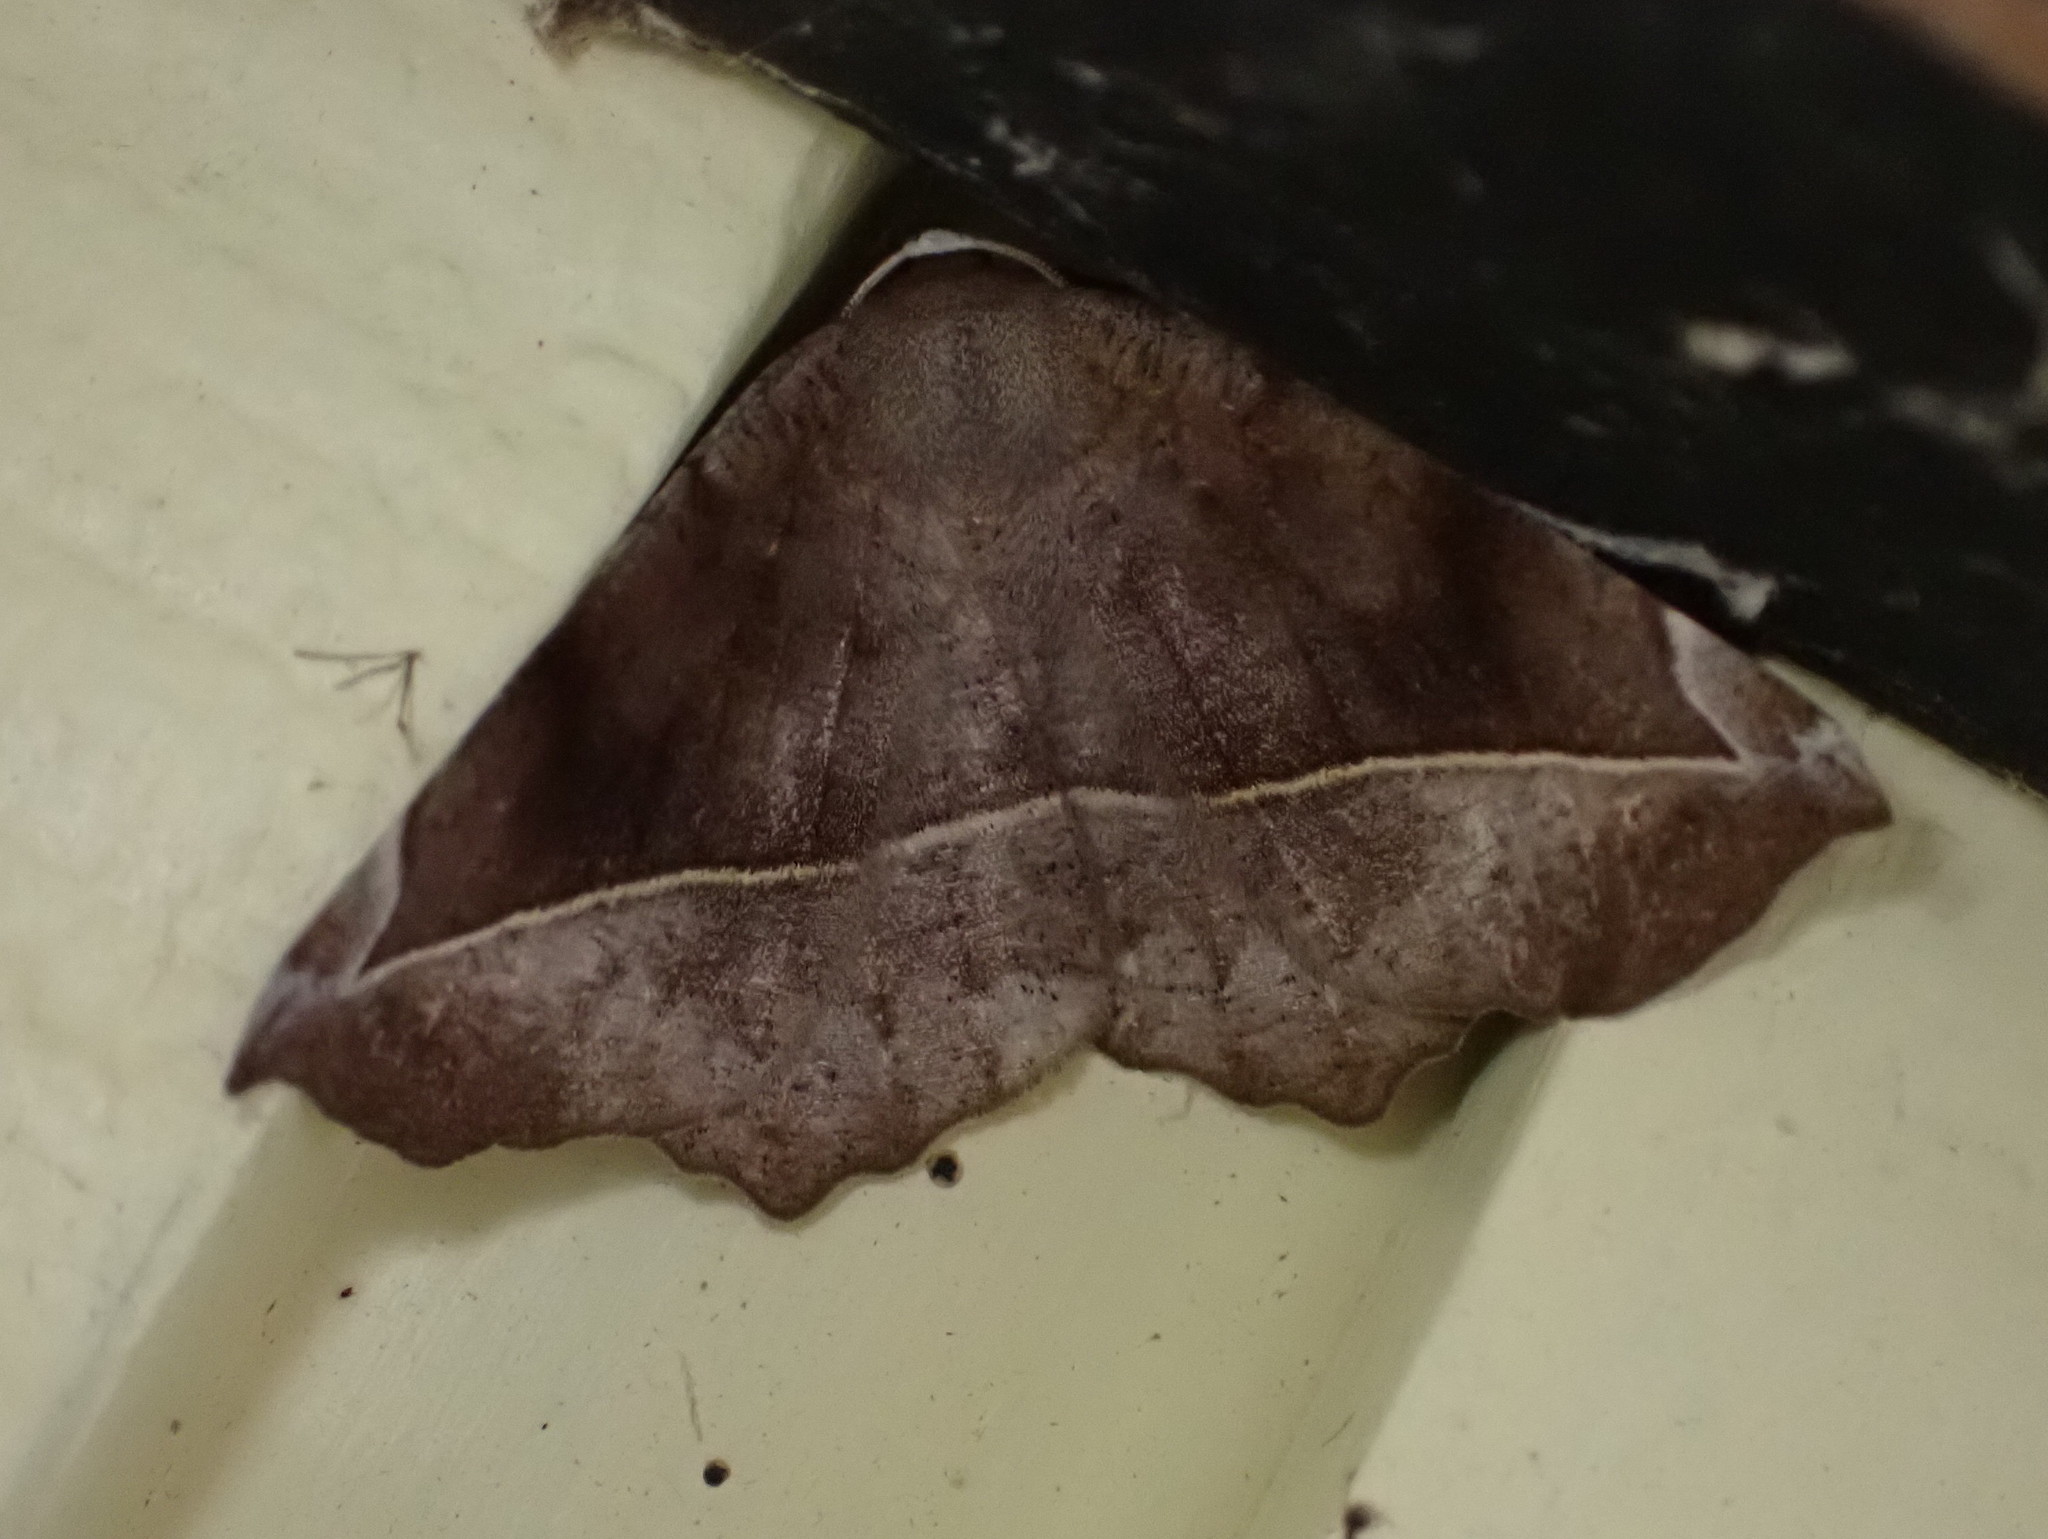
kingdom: Animalia
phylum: Arthropoda
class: Insecta
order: Lepidoptera
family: Geometridae
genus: Eutrapela
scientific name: Eutrapela clemataria
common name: Curved-toothed geometer
